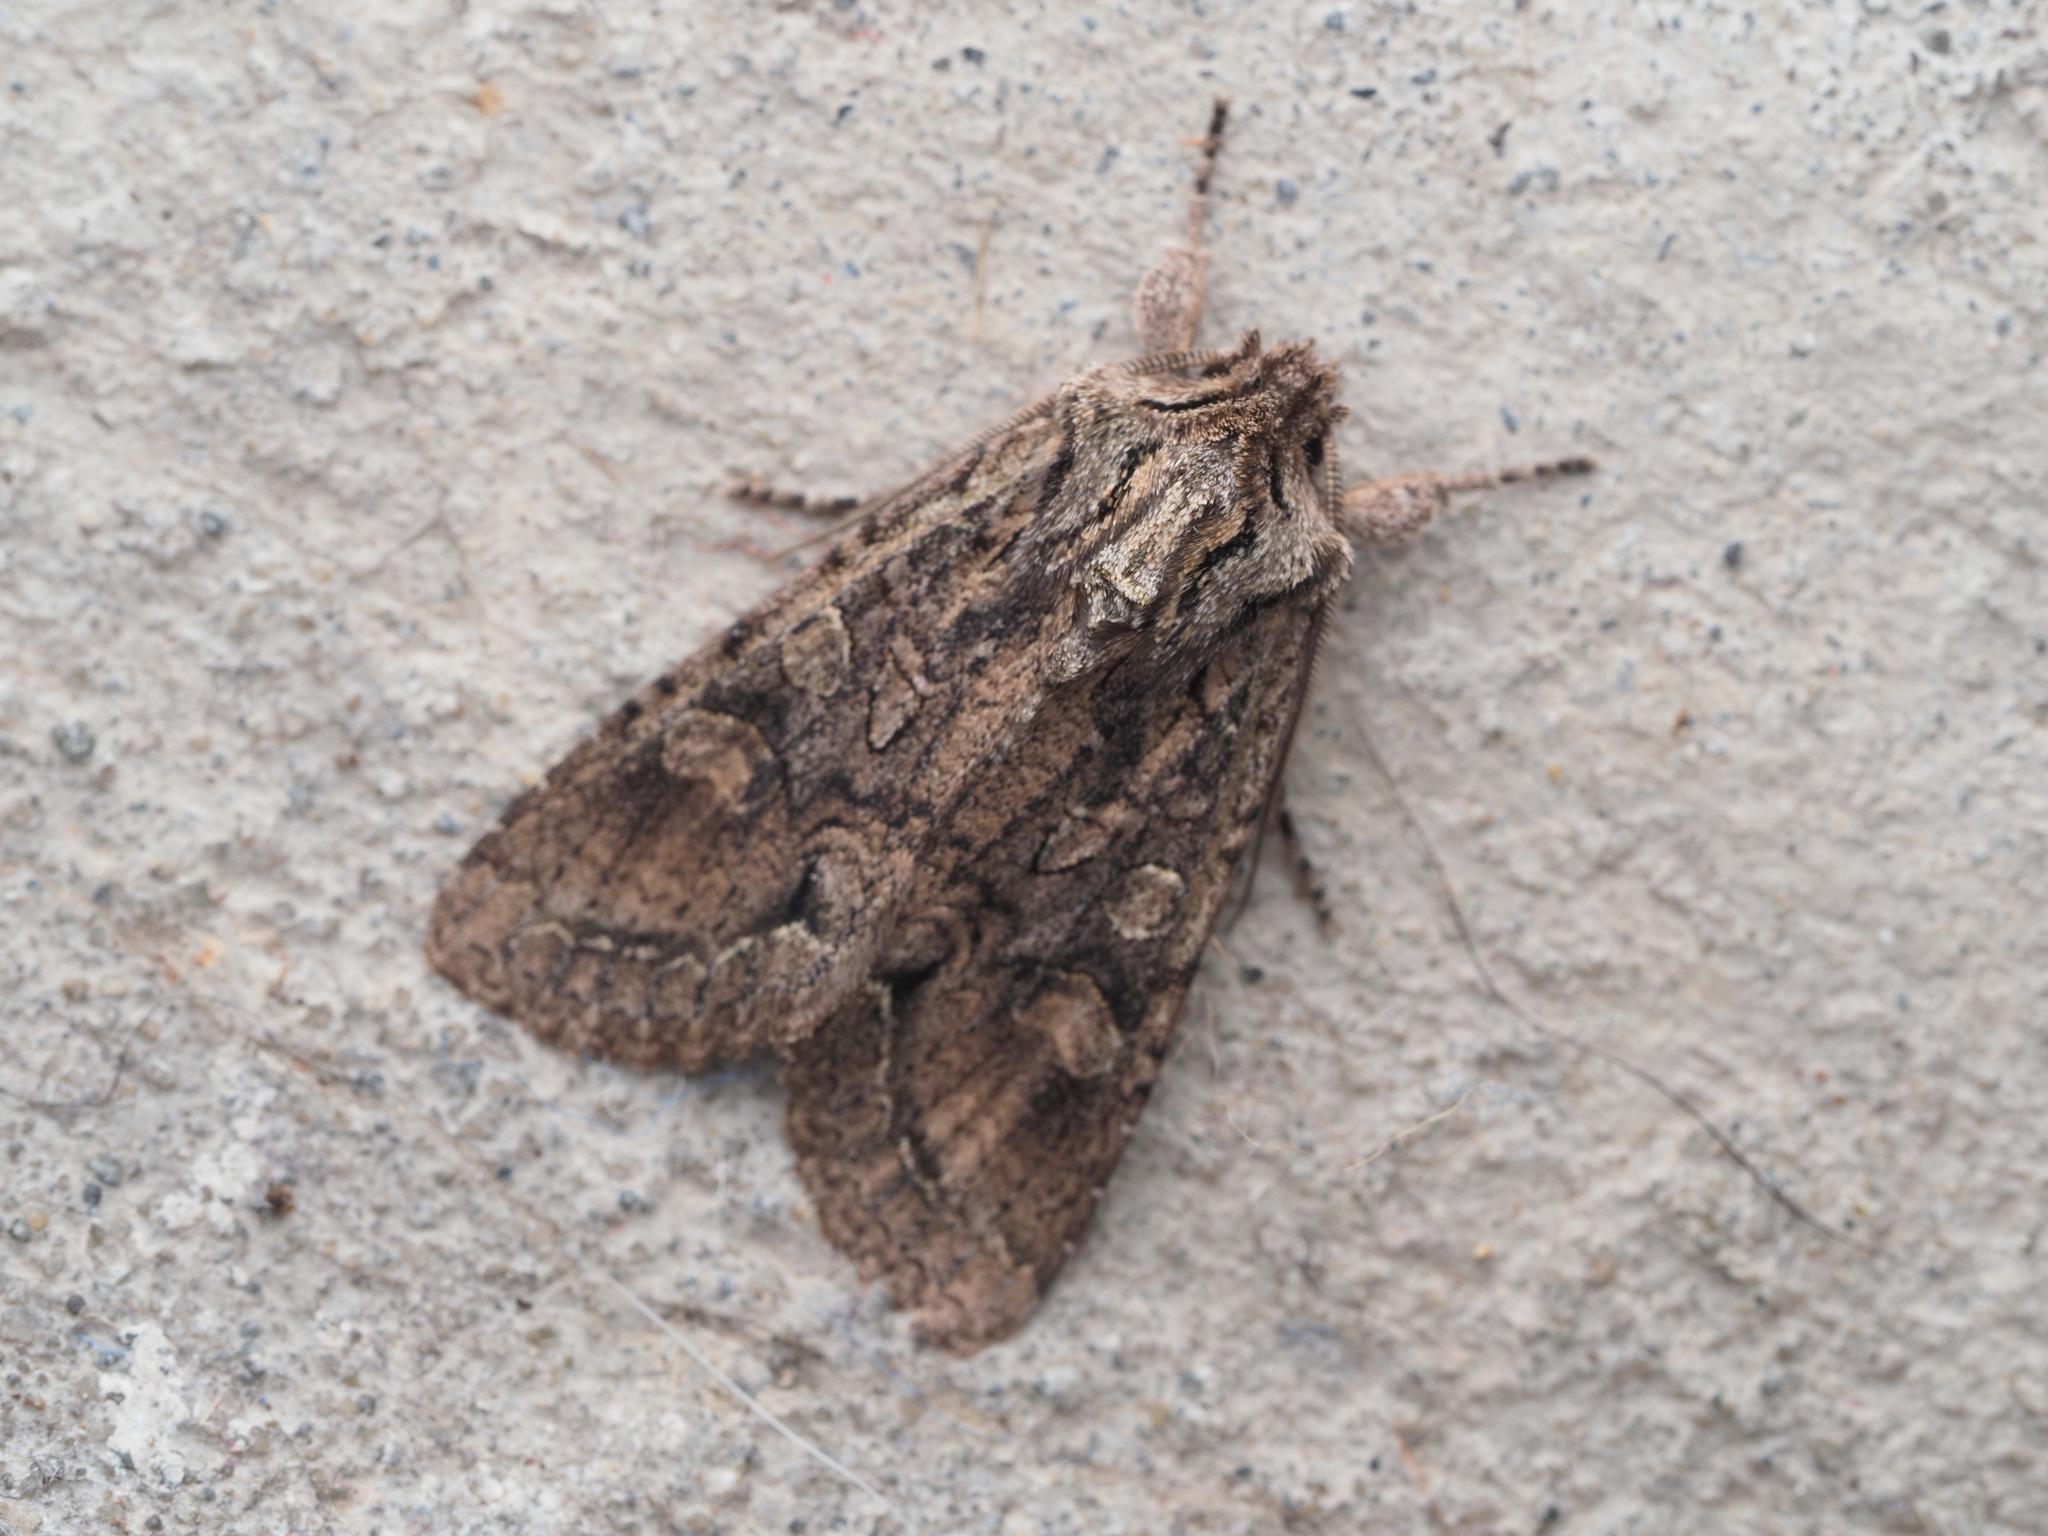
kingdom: Animalia
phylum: Arthropoda
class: Insecta
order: Lepidoptera
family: Noctuidae
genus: Ichneutica
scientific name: Ichneutica mutans
